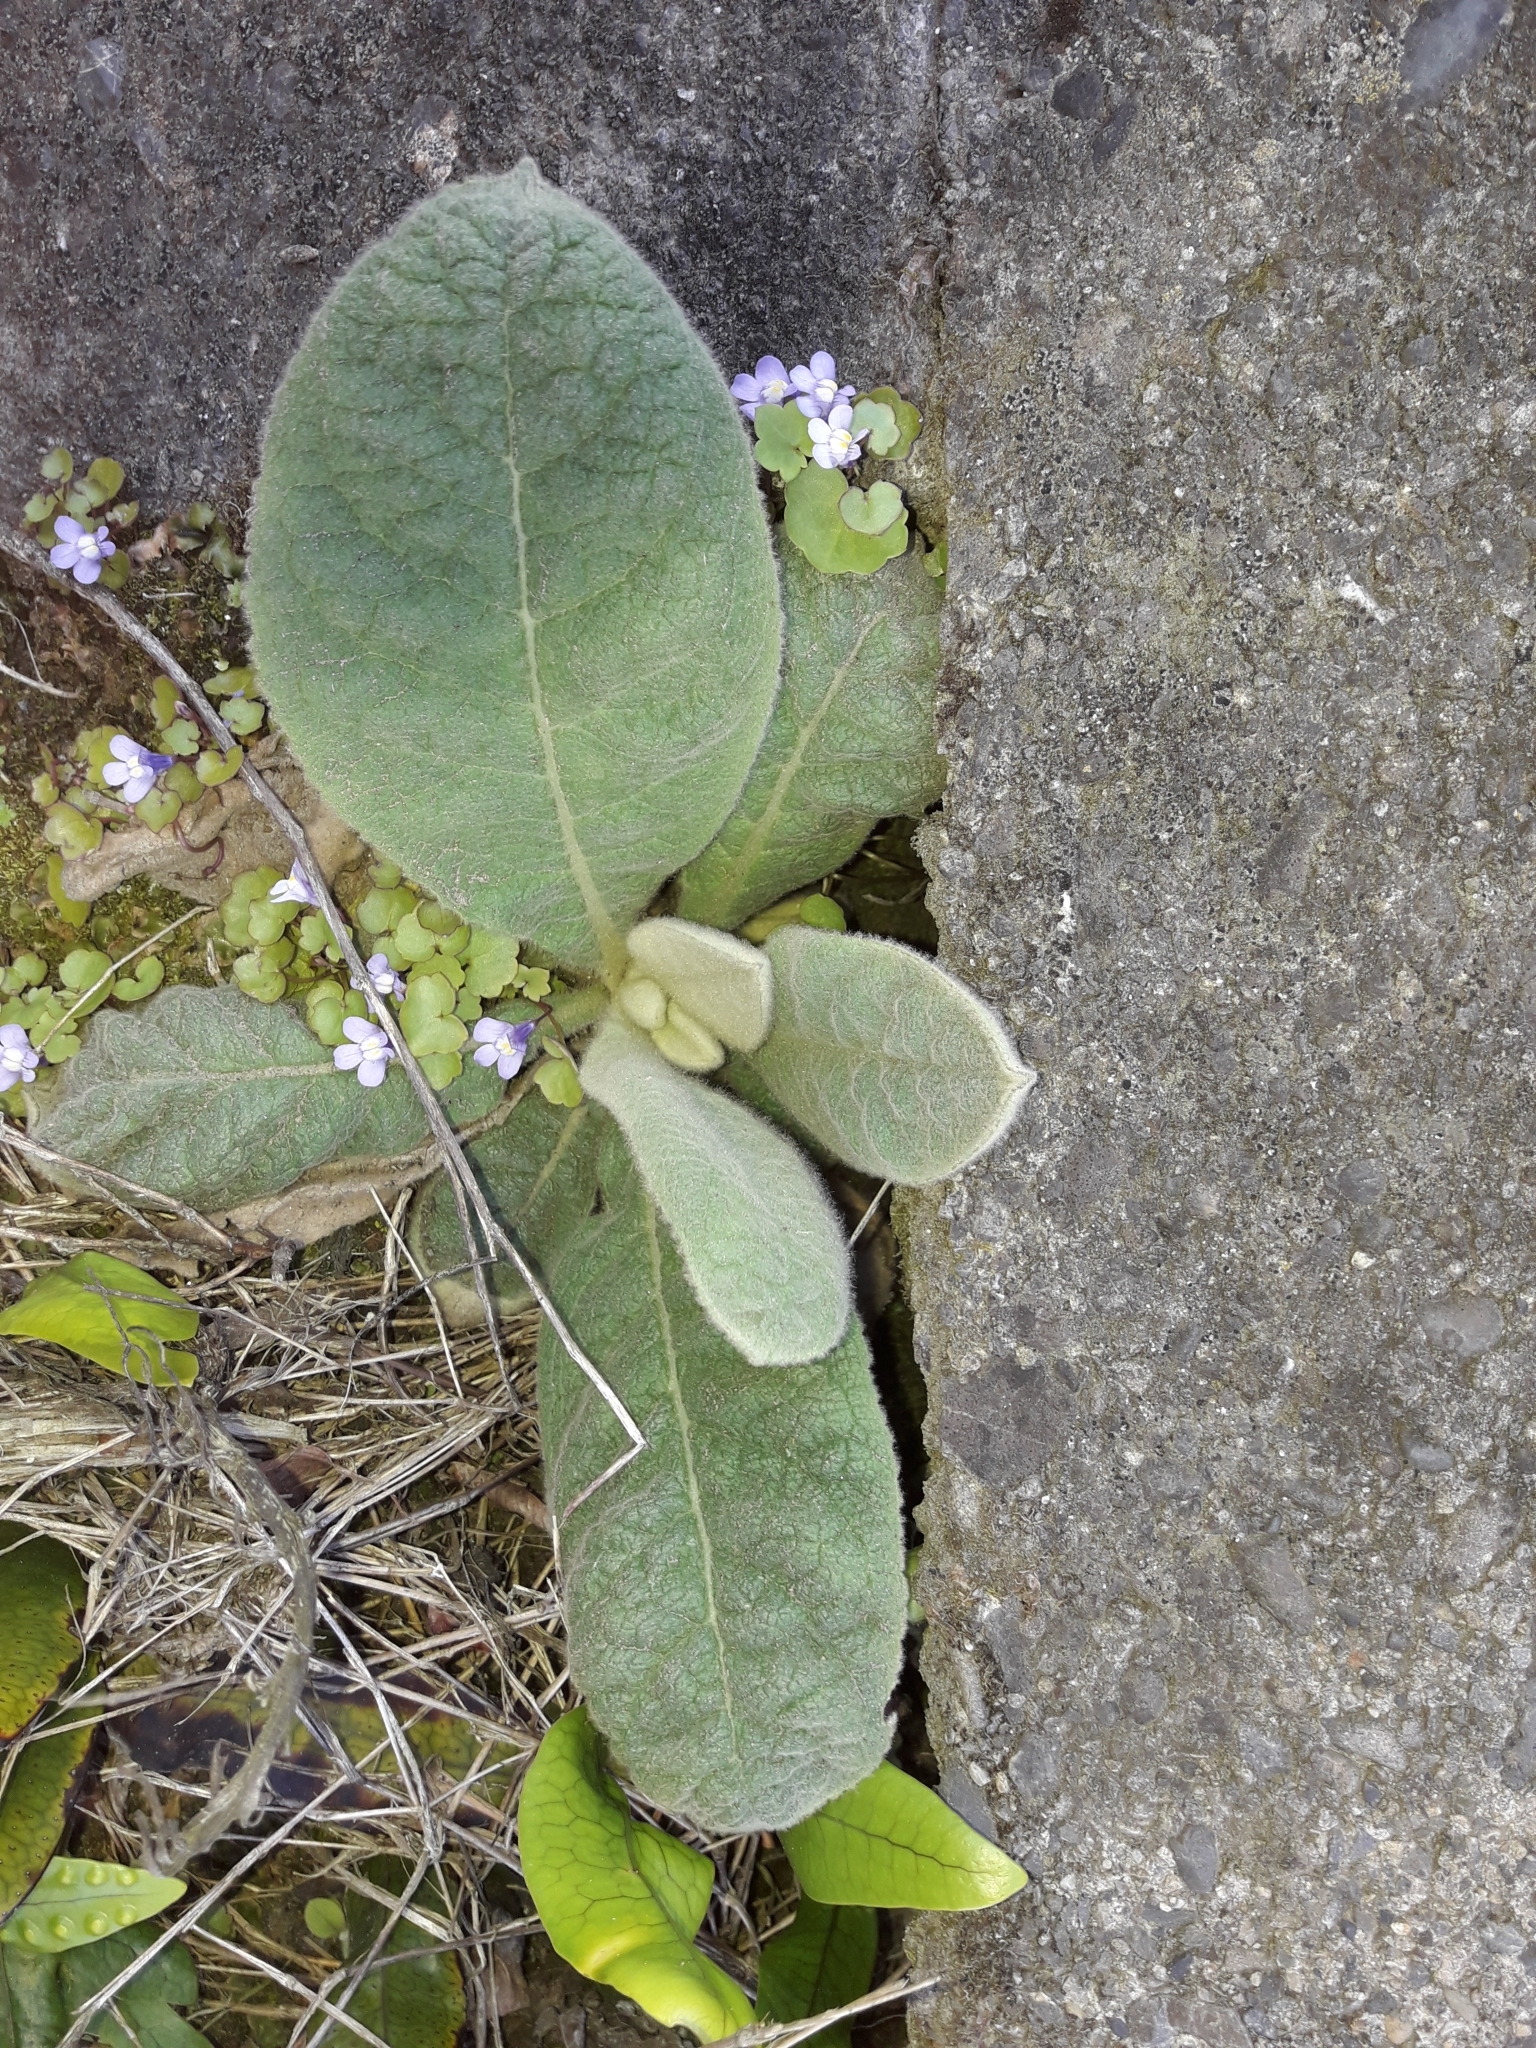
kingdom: Plantae
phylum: Tracheophyta
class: Magnoliopsida
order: Lamiales
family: Scrophulariaceae
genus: Verbascum
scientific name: Verbascum thapsus
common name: Common mullein
